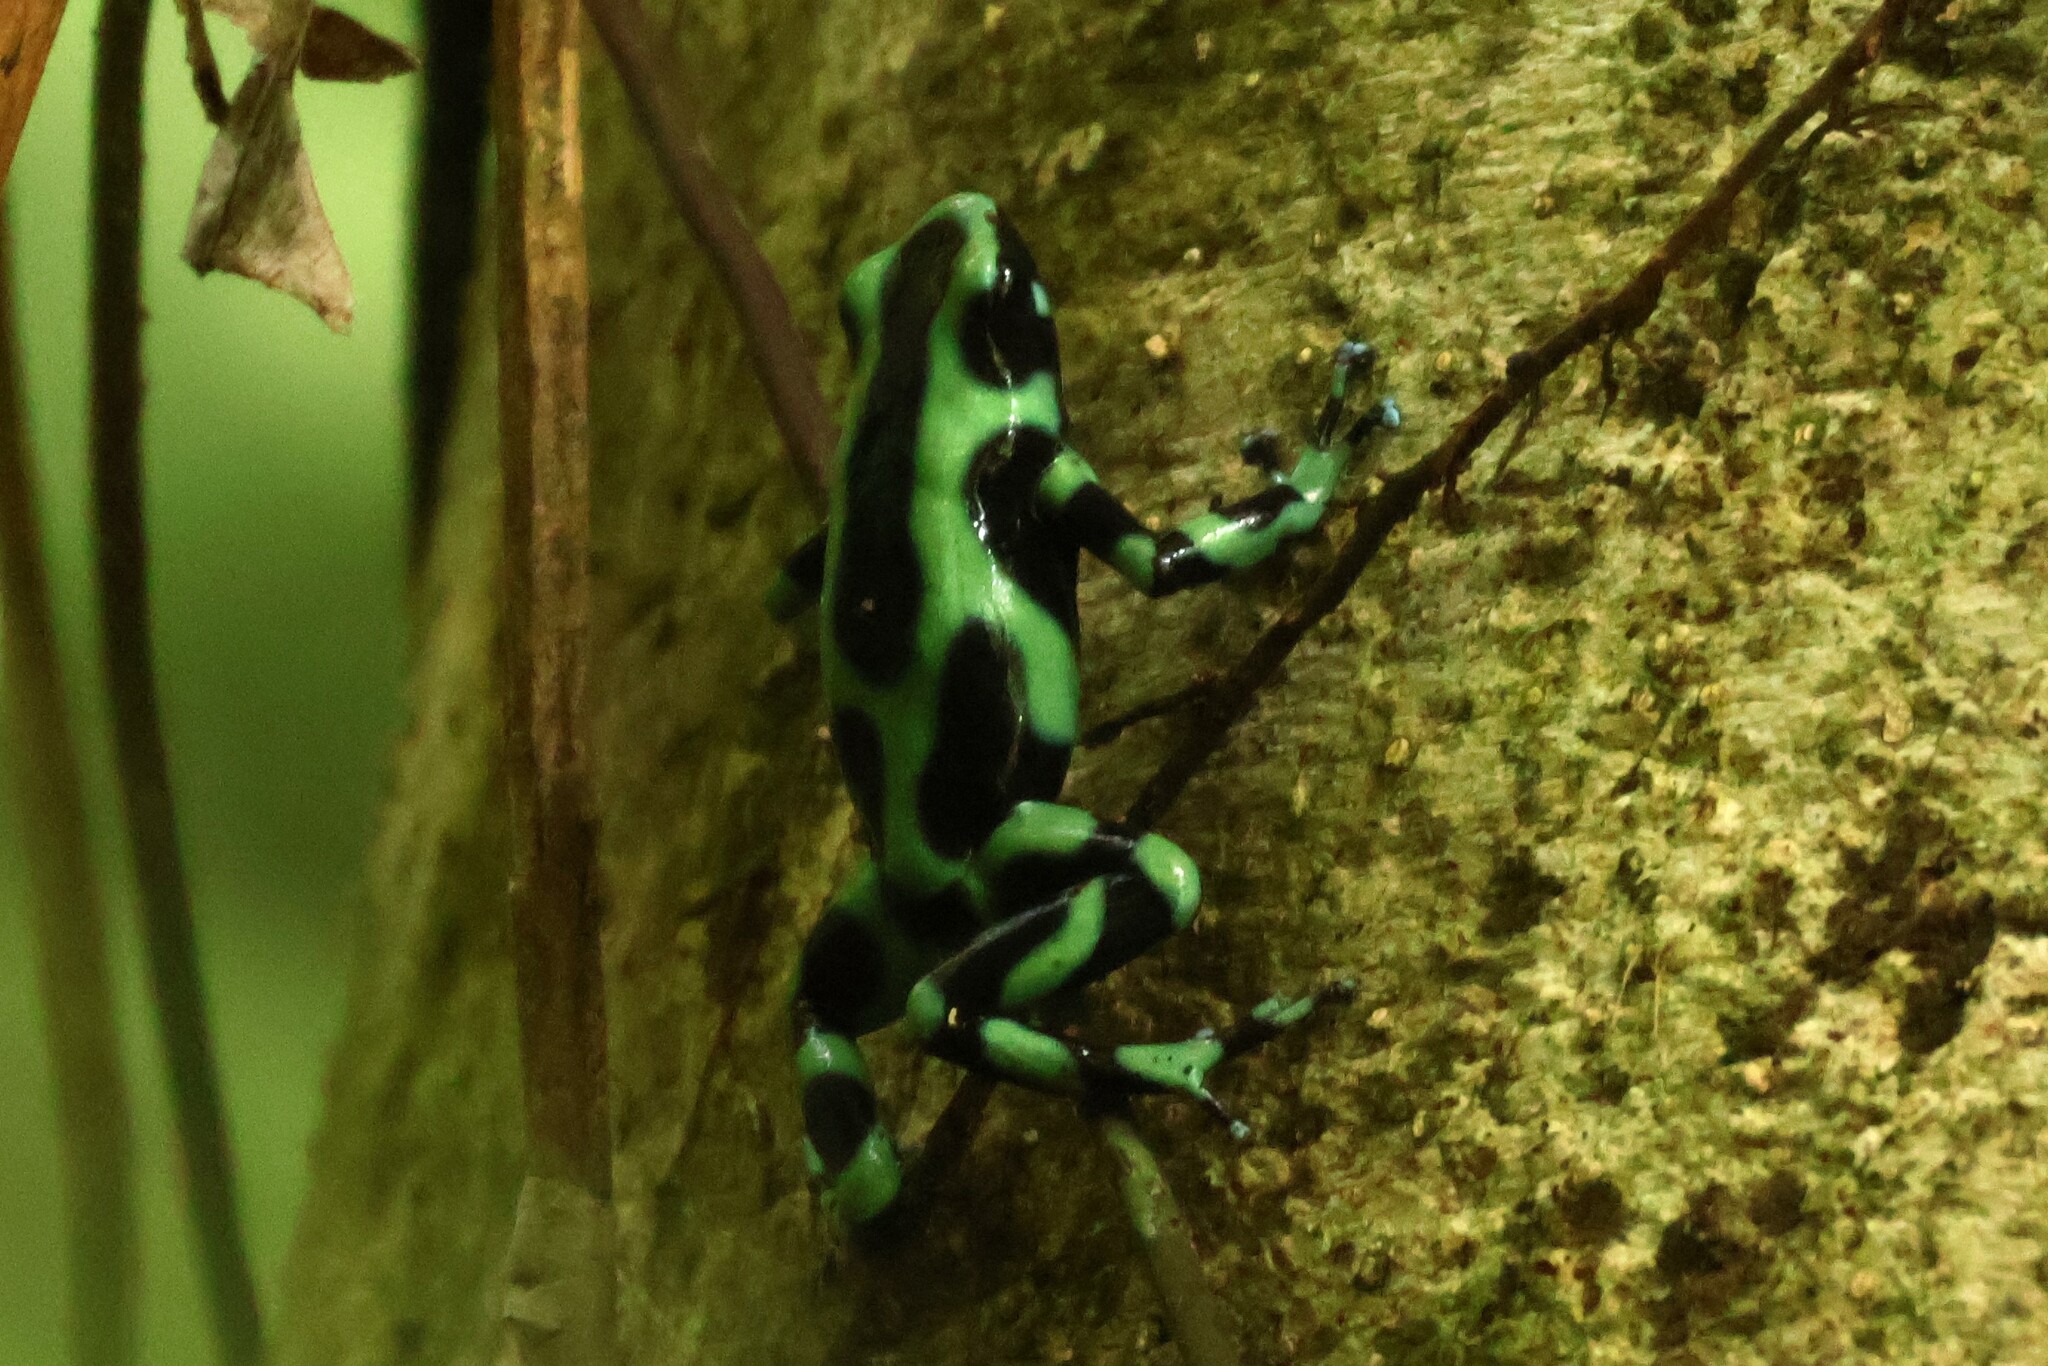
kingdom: Animalia
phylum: Chordata
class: Amphibia
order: Anura
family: Dendrobatidae
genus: Dendrobates
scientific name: Dendrobates auratus
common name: Green and black poison dart frog
